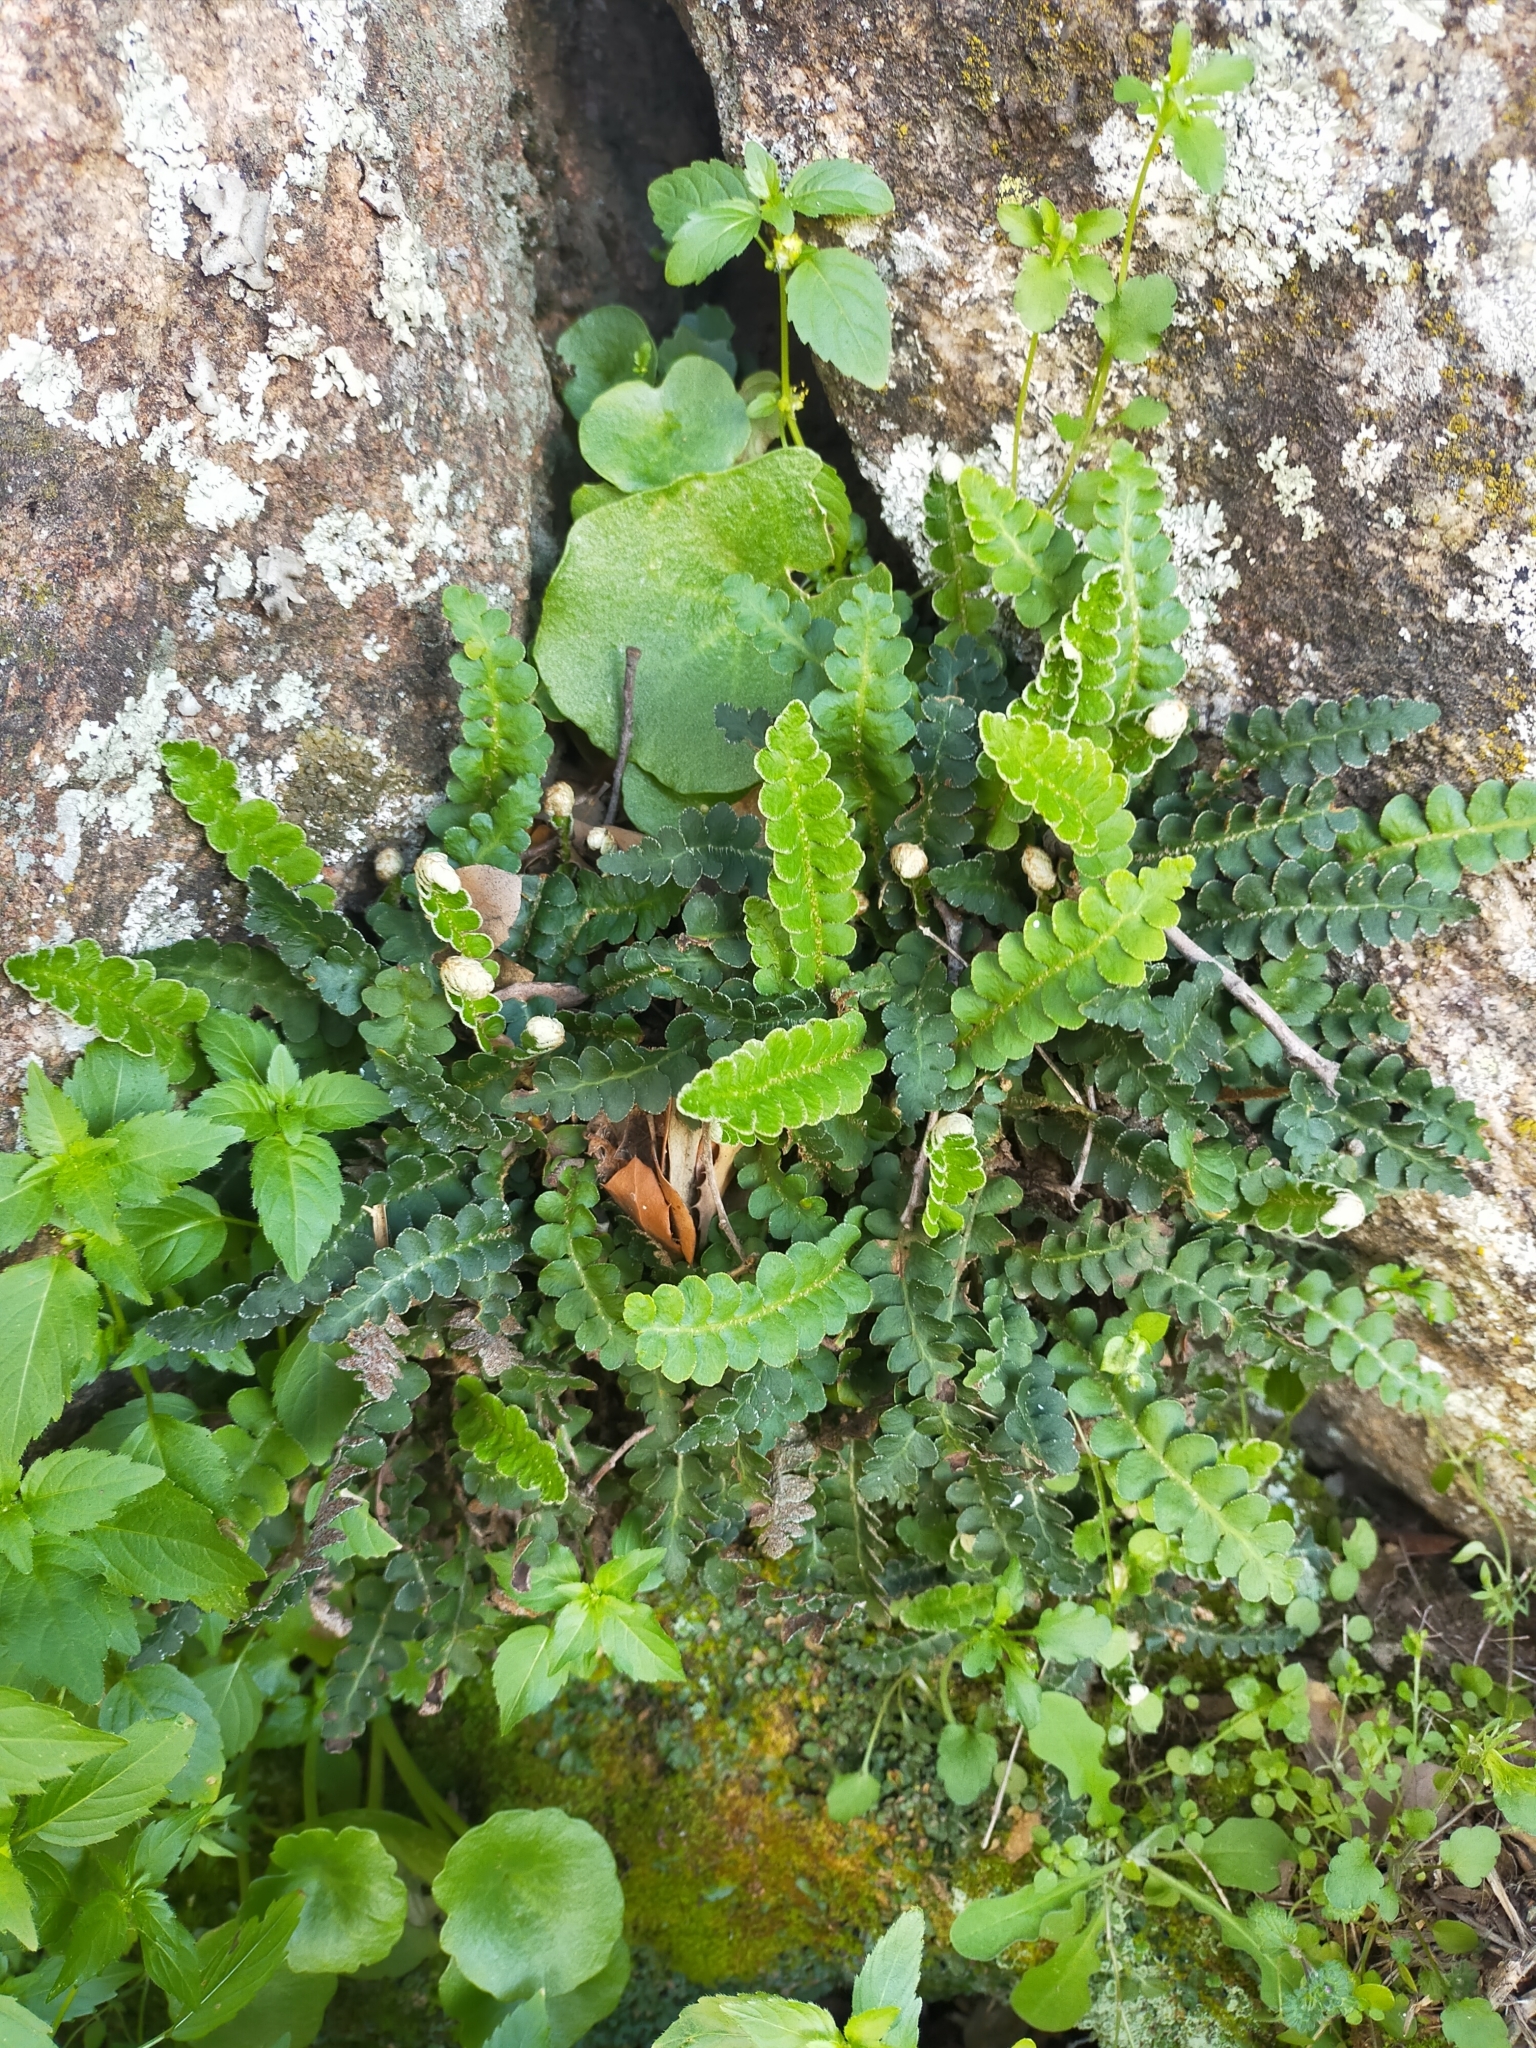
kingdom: Plantae
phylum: Tracheophyta
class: Polypodiopsida
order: Polypodiales
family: Aspleniaceae
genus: Asplenium
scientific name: Asplenium ceterach
